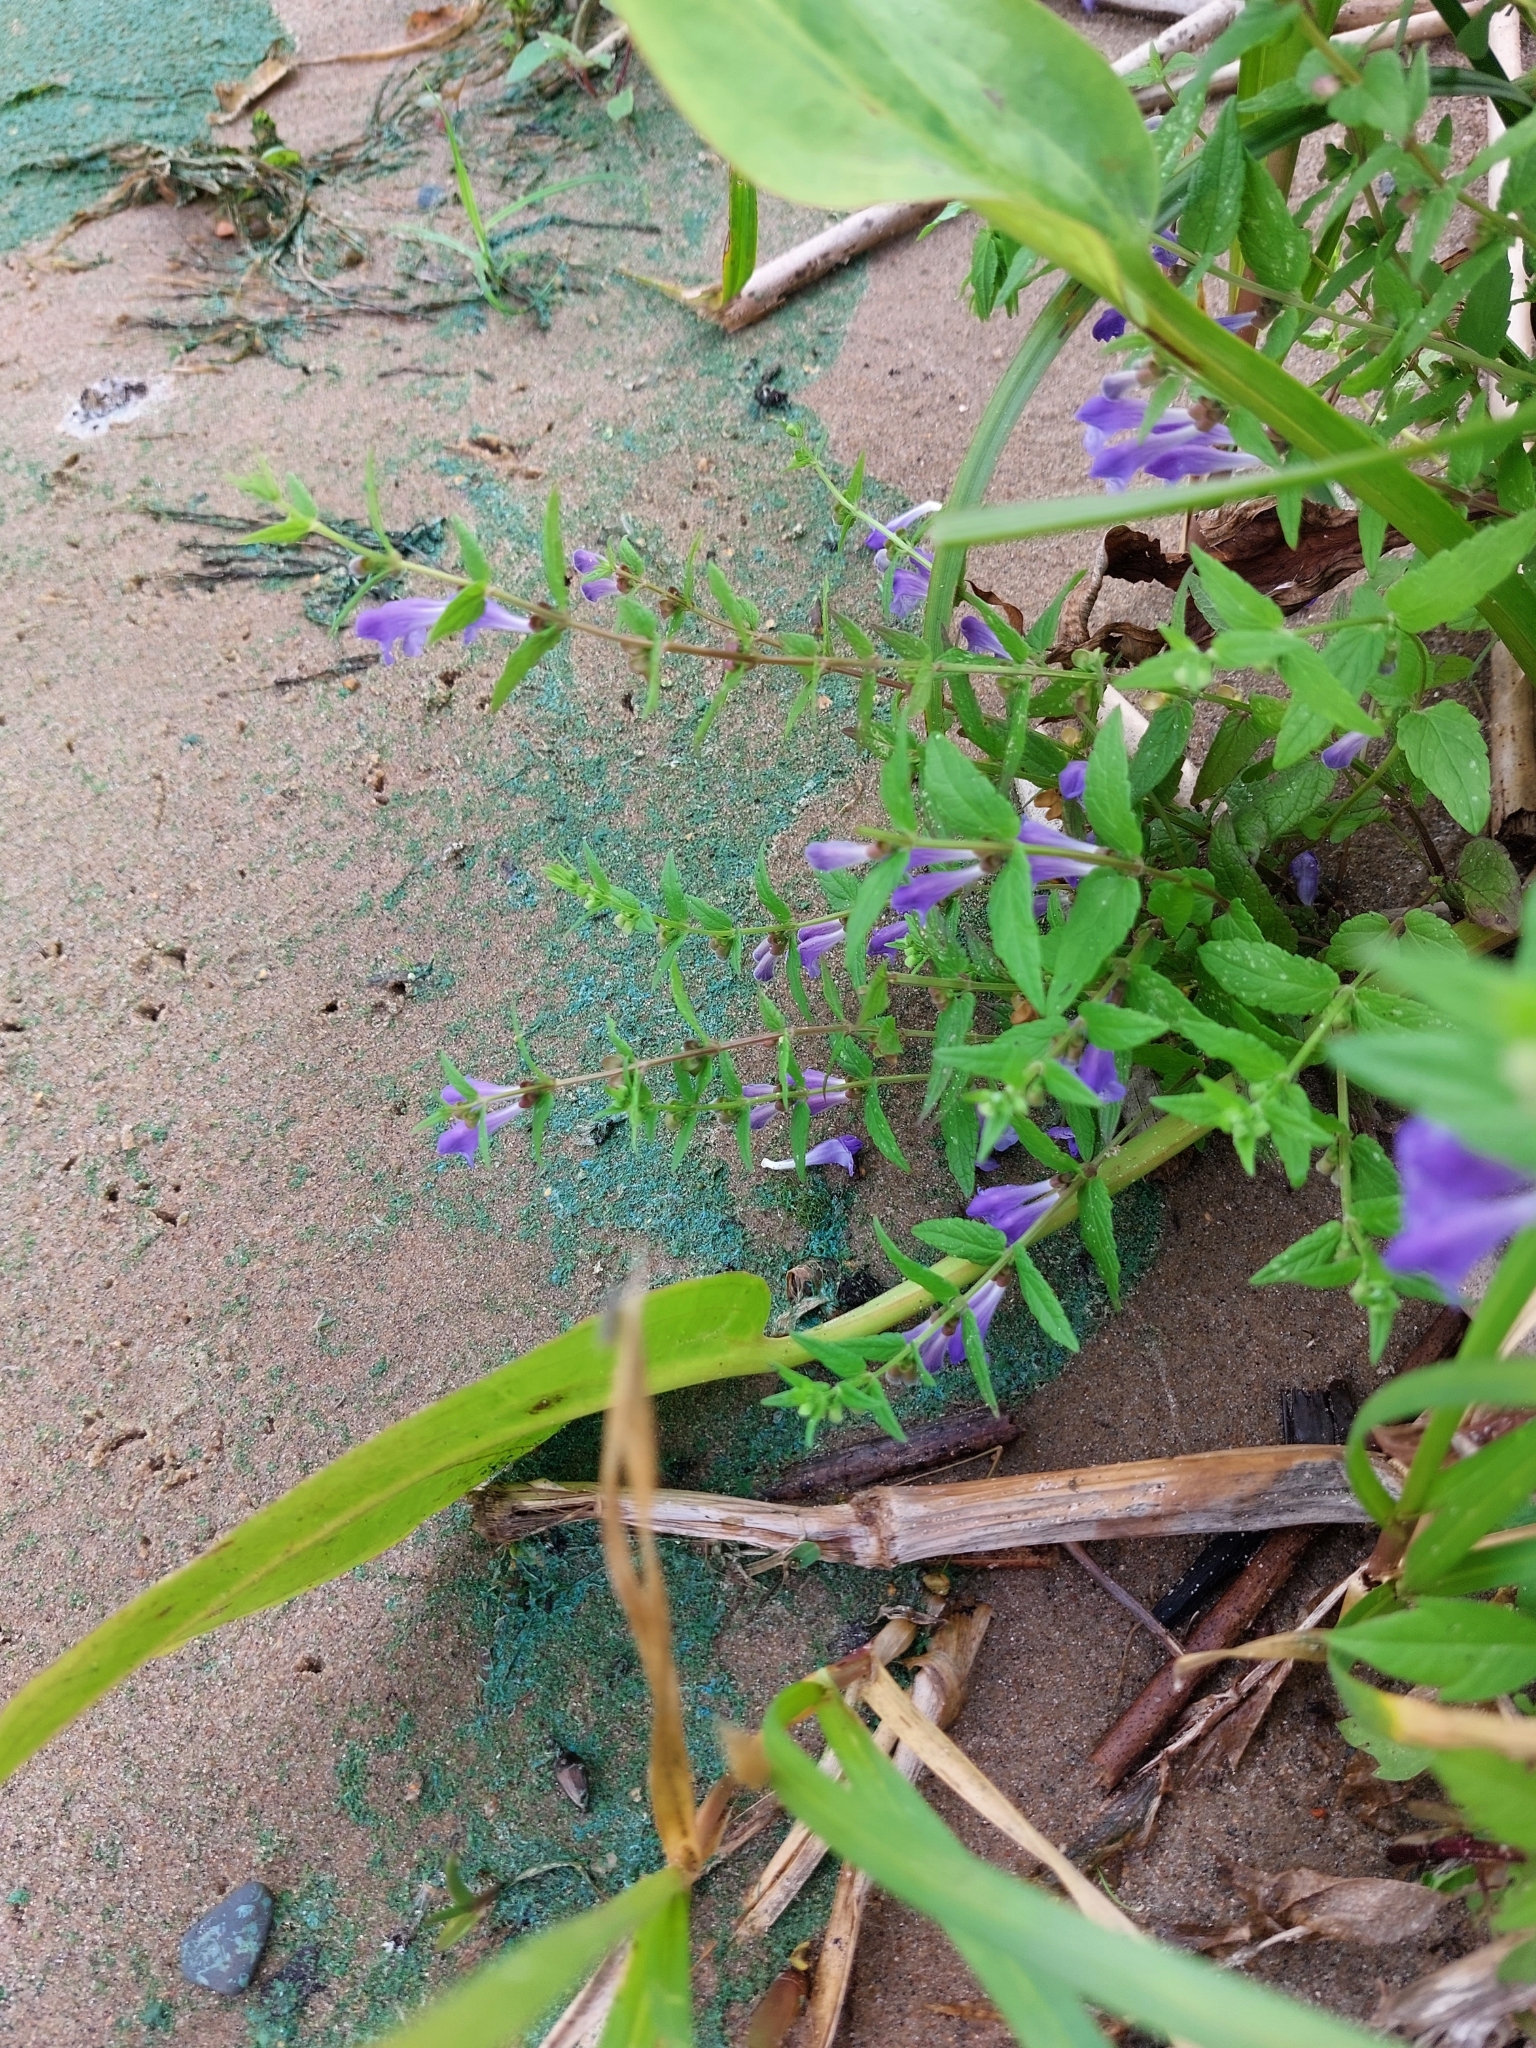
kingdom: Plantae
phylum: Tracheophyta
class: Magnoliopsida
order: Lamiales
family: Lamiaceae
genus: Scutellaria
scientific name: Scutellaria galericulata
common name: Skullcap
